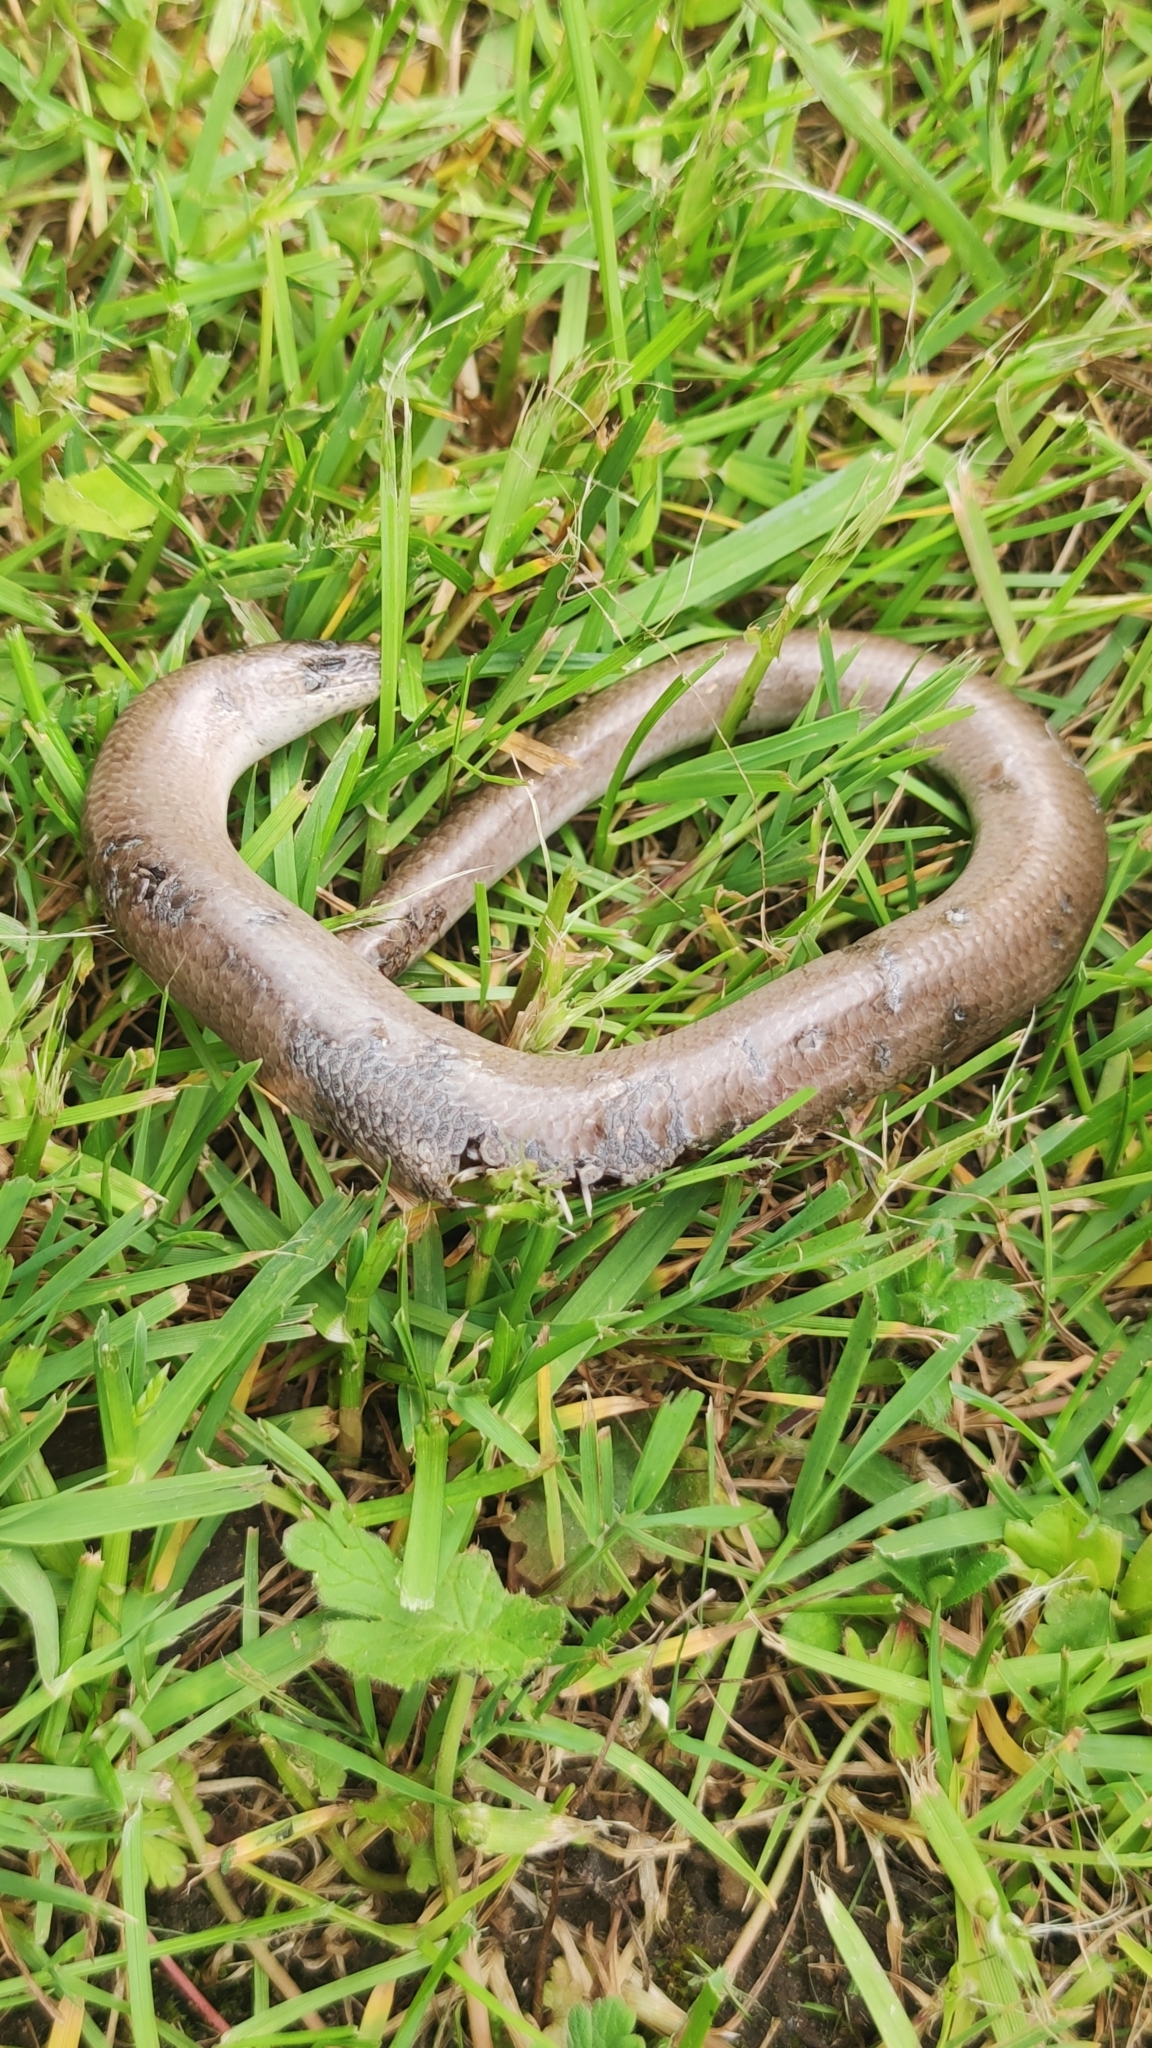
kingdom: Animalia
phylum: Chordata
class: Squamata
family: Anguidae
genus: Anguis
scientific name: Anguis fragilis
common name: Slow worm
